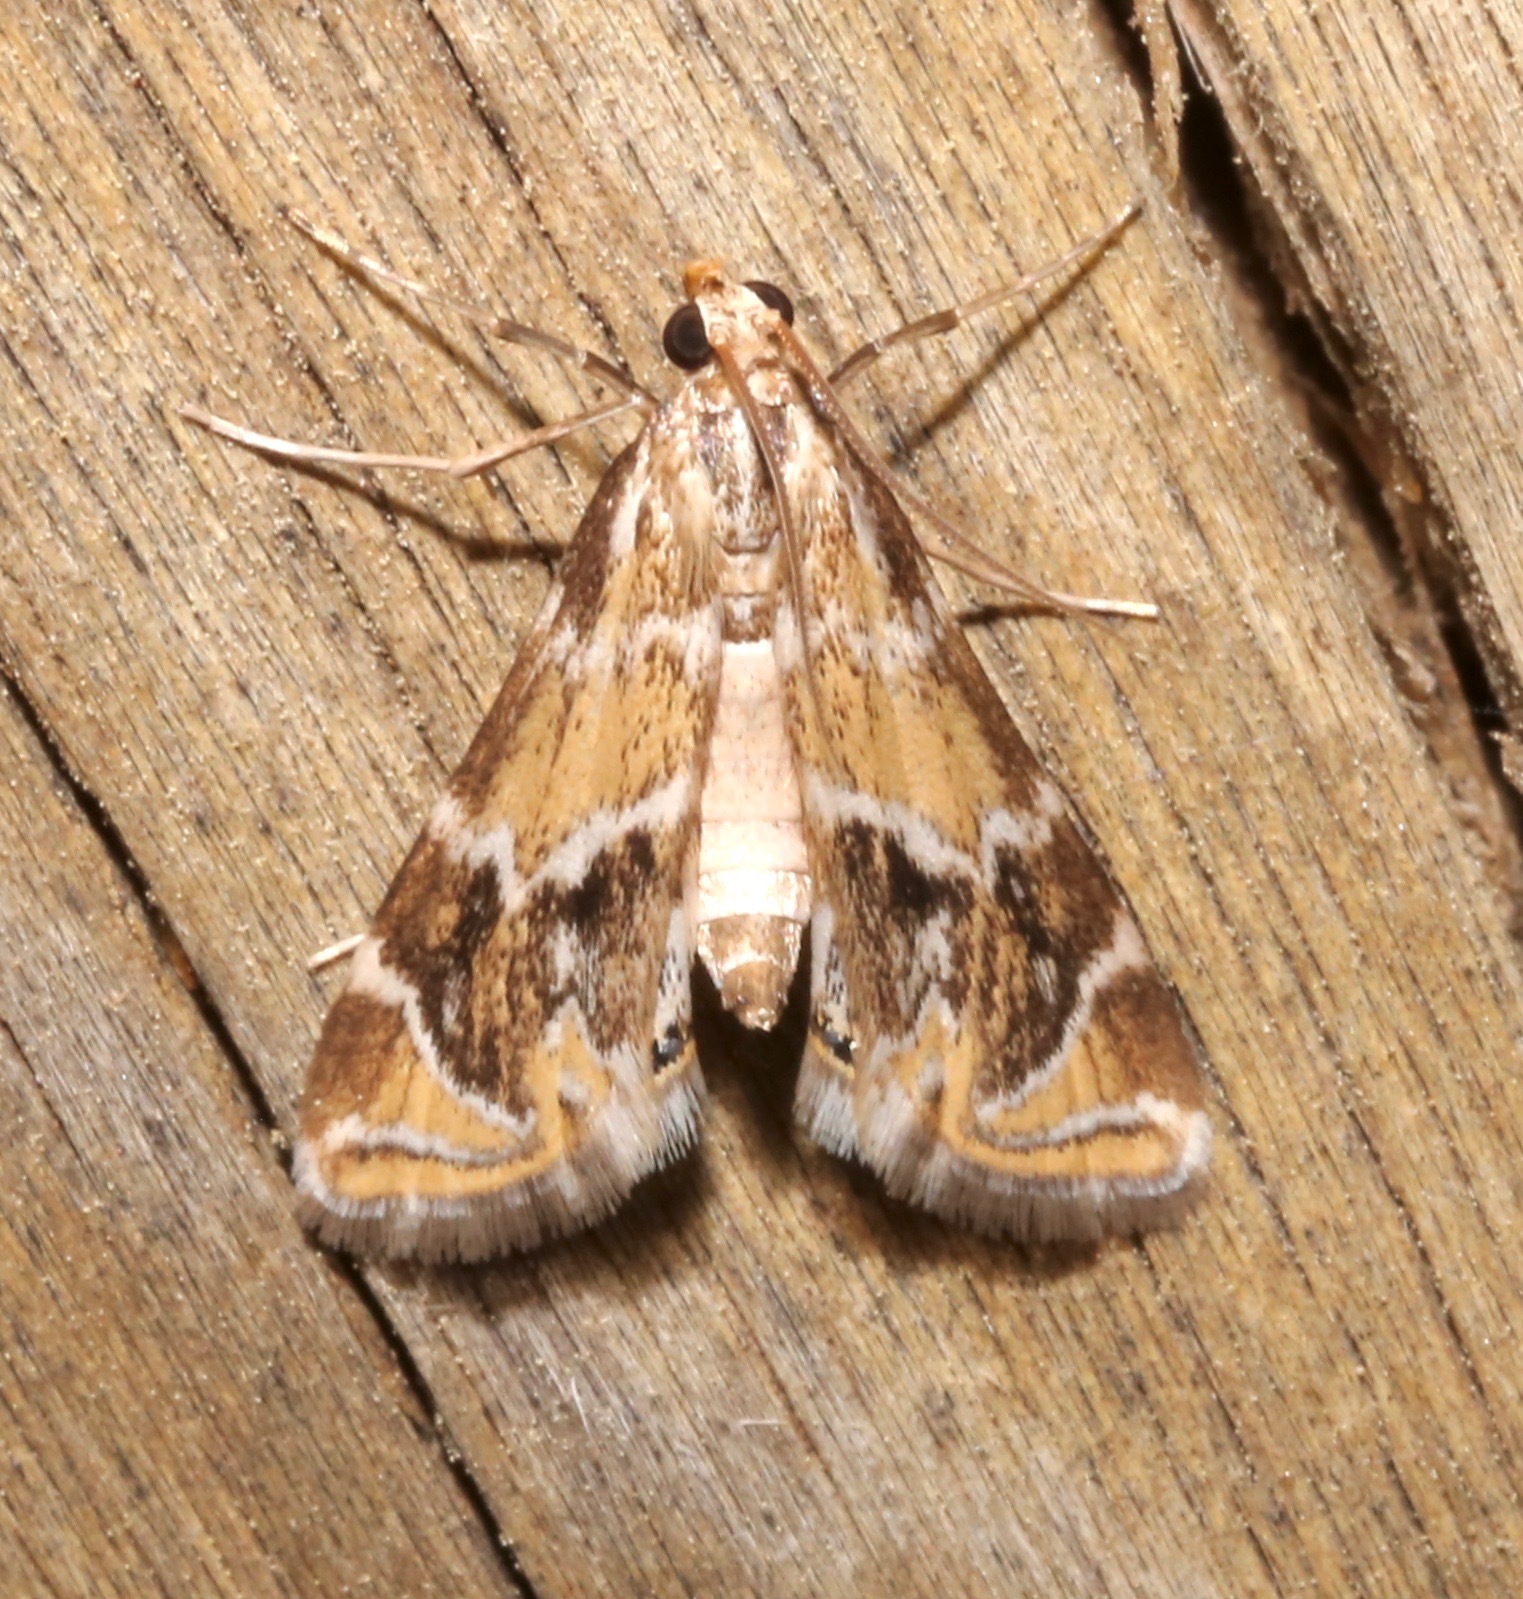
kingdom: Animalia
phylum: Arthropoda
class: Insecta
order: Lepidoptera
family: Crambidae
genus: Petrophila
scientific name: Petrophila avernalis
